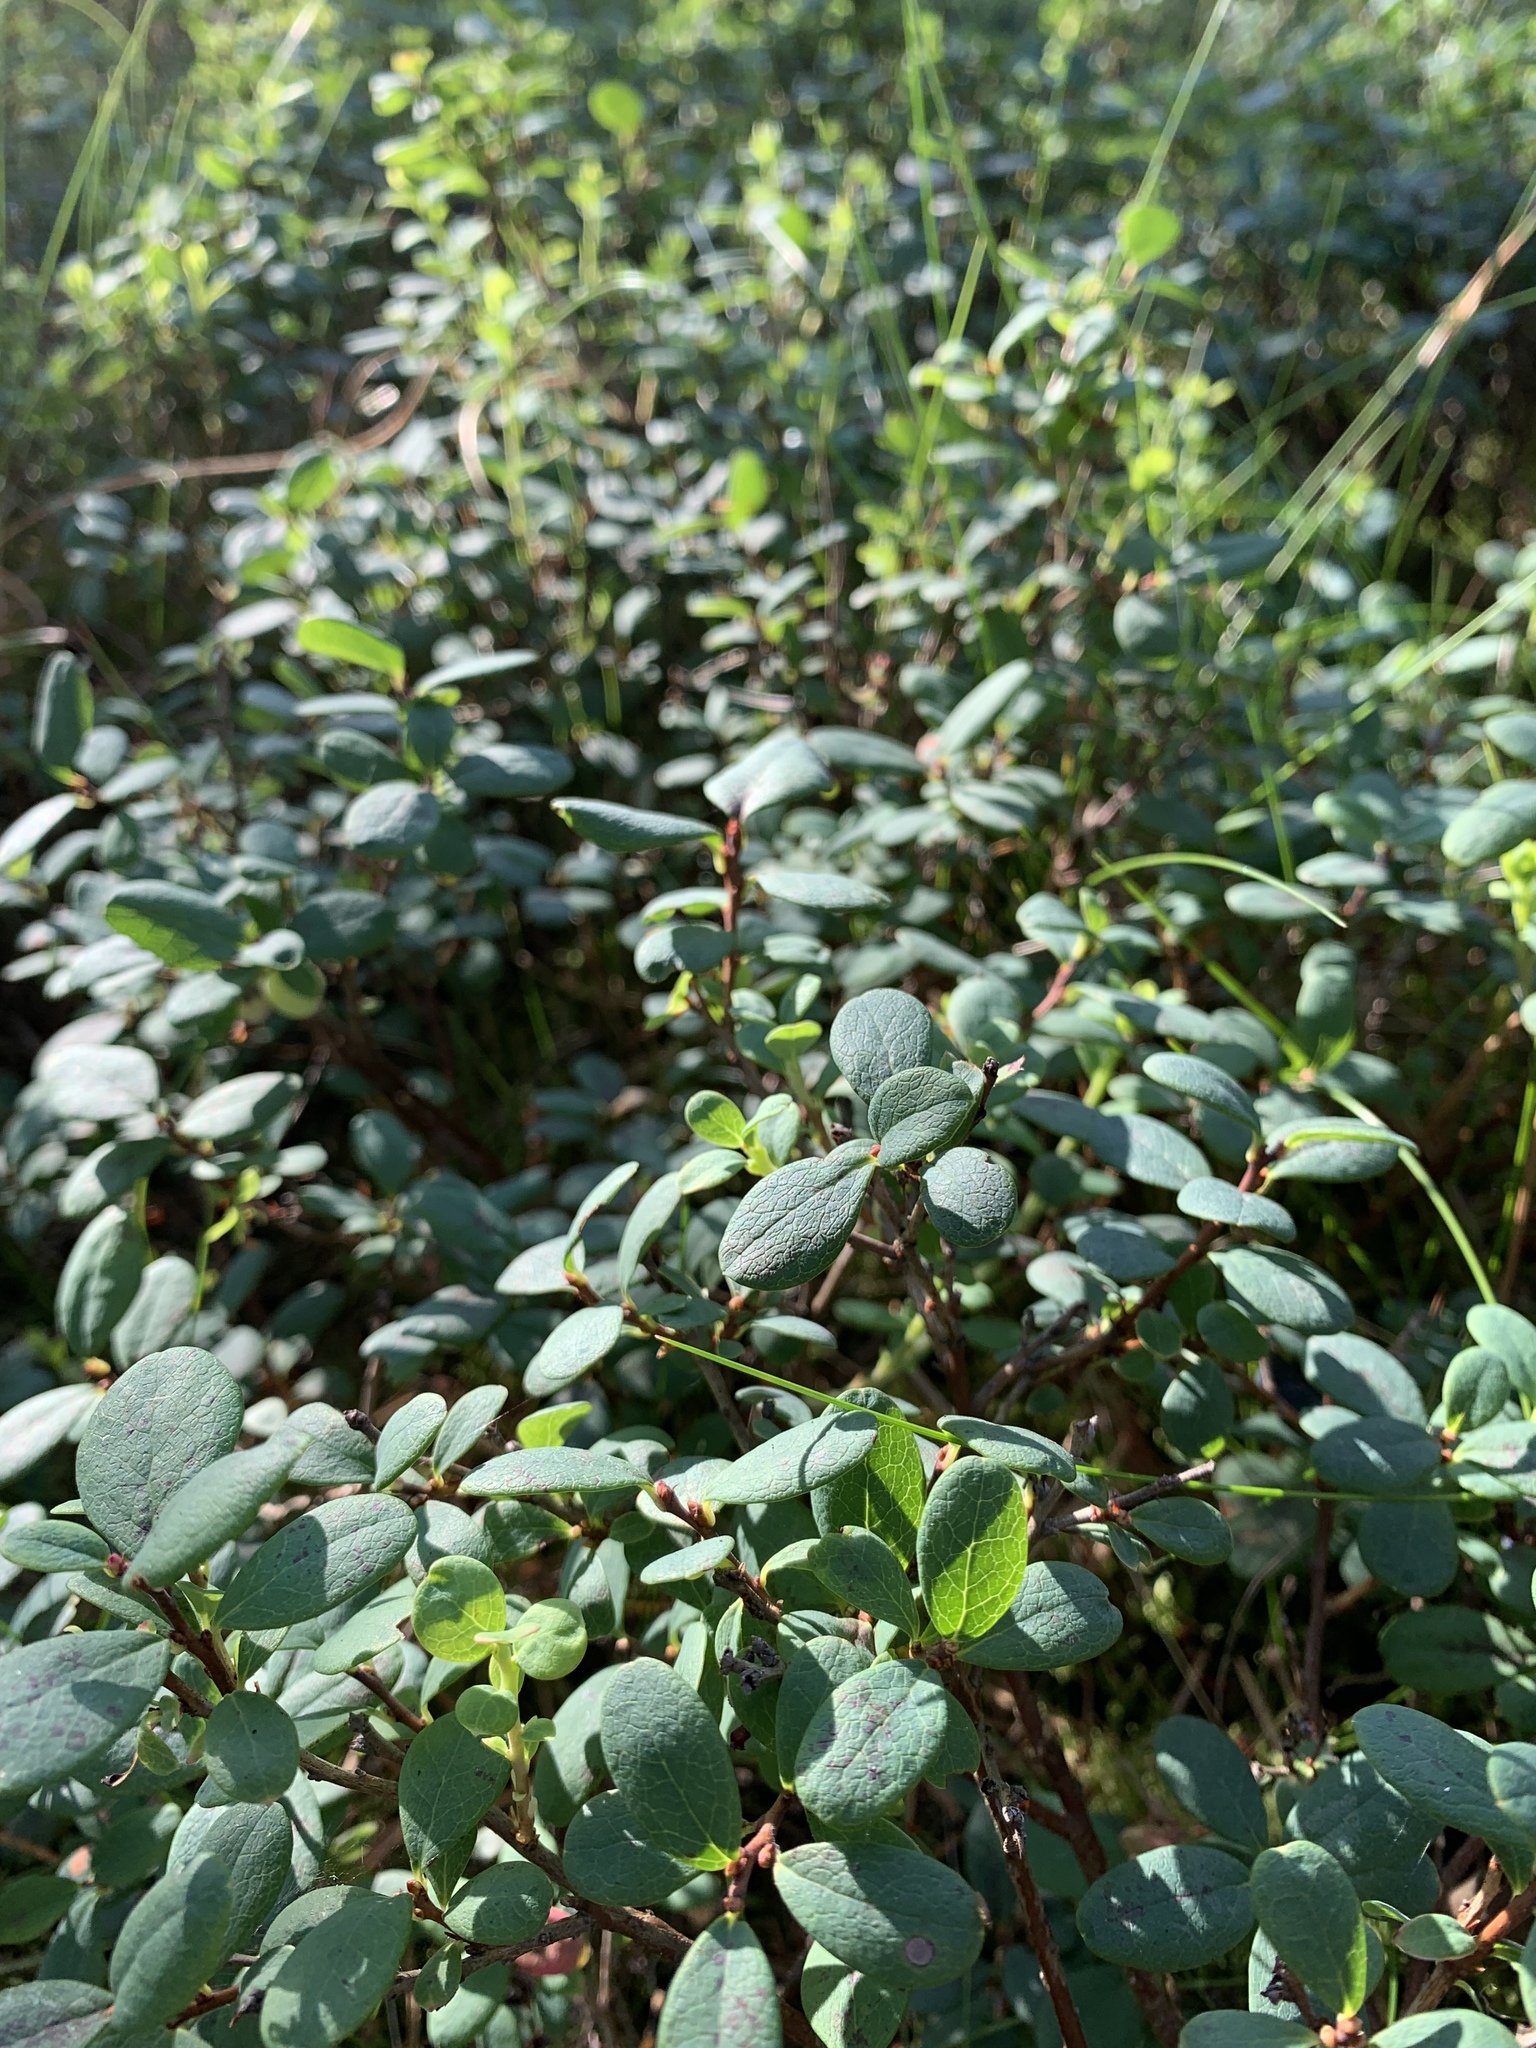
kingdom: Plantae
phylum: Tracheophyta
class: Magnoliopsida
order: Ericales
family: Ericaceae
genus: Vaccinium
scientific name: Vaccinium uliginosum
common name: Bog bilberry
